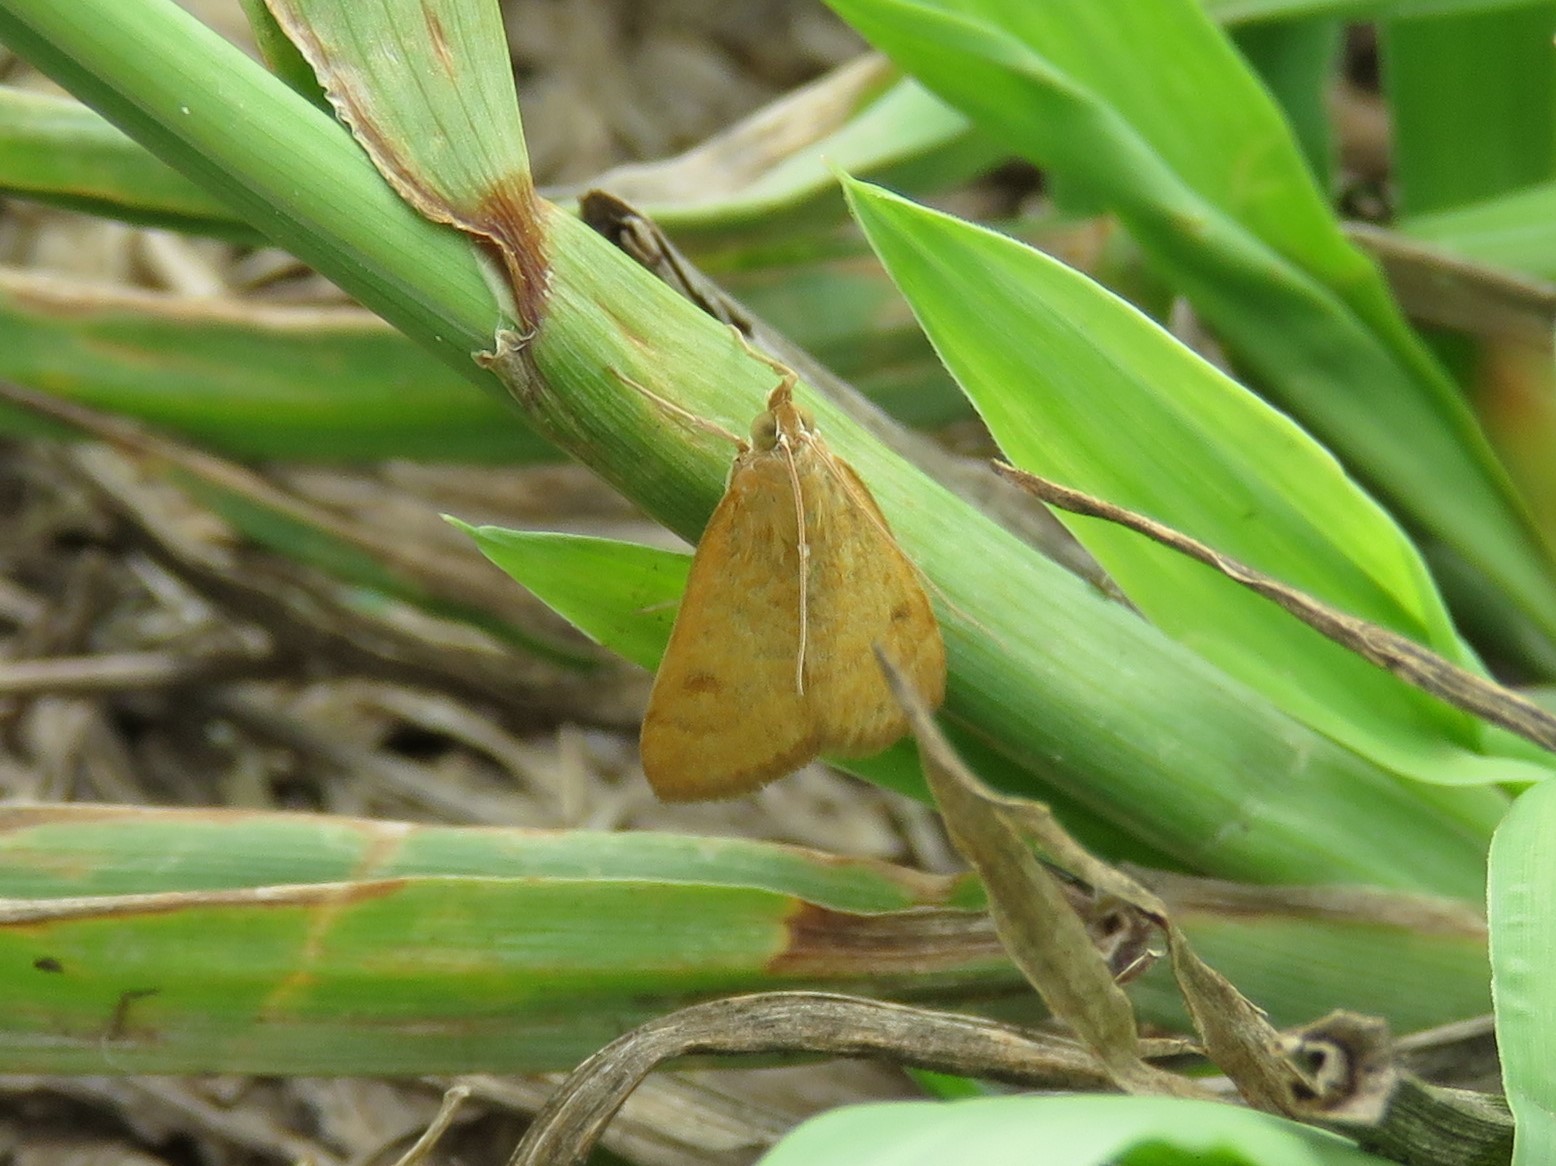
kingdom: Animalia
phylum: Arthropoda
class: Insecta
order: Lepidoptera
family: Crambidae
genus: Achyra
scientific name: Achyra rantalis
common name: Garden webworm
